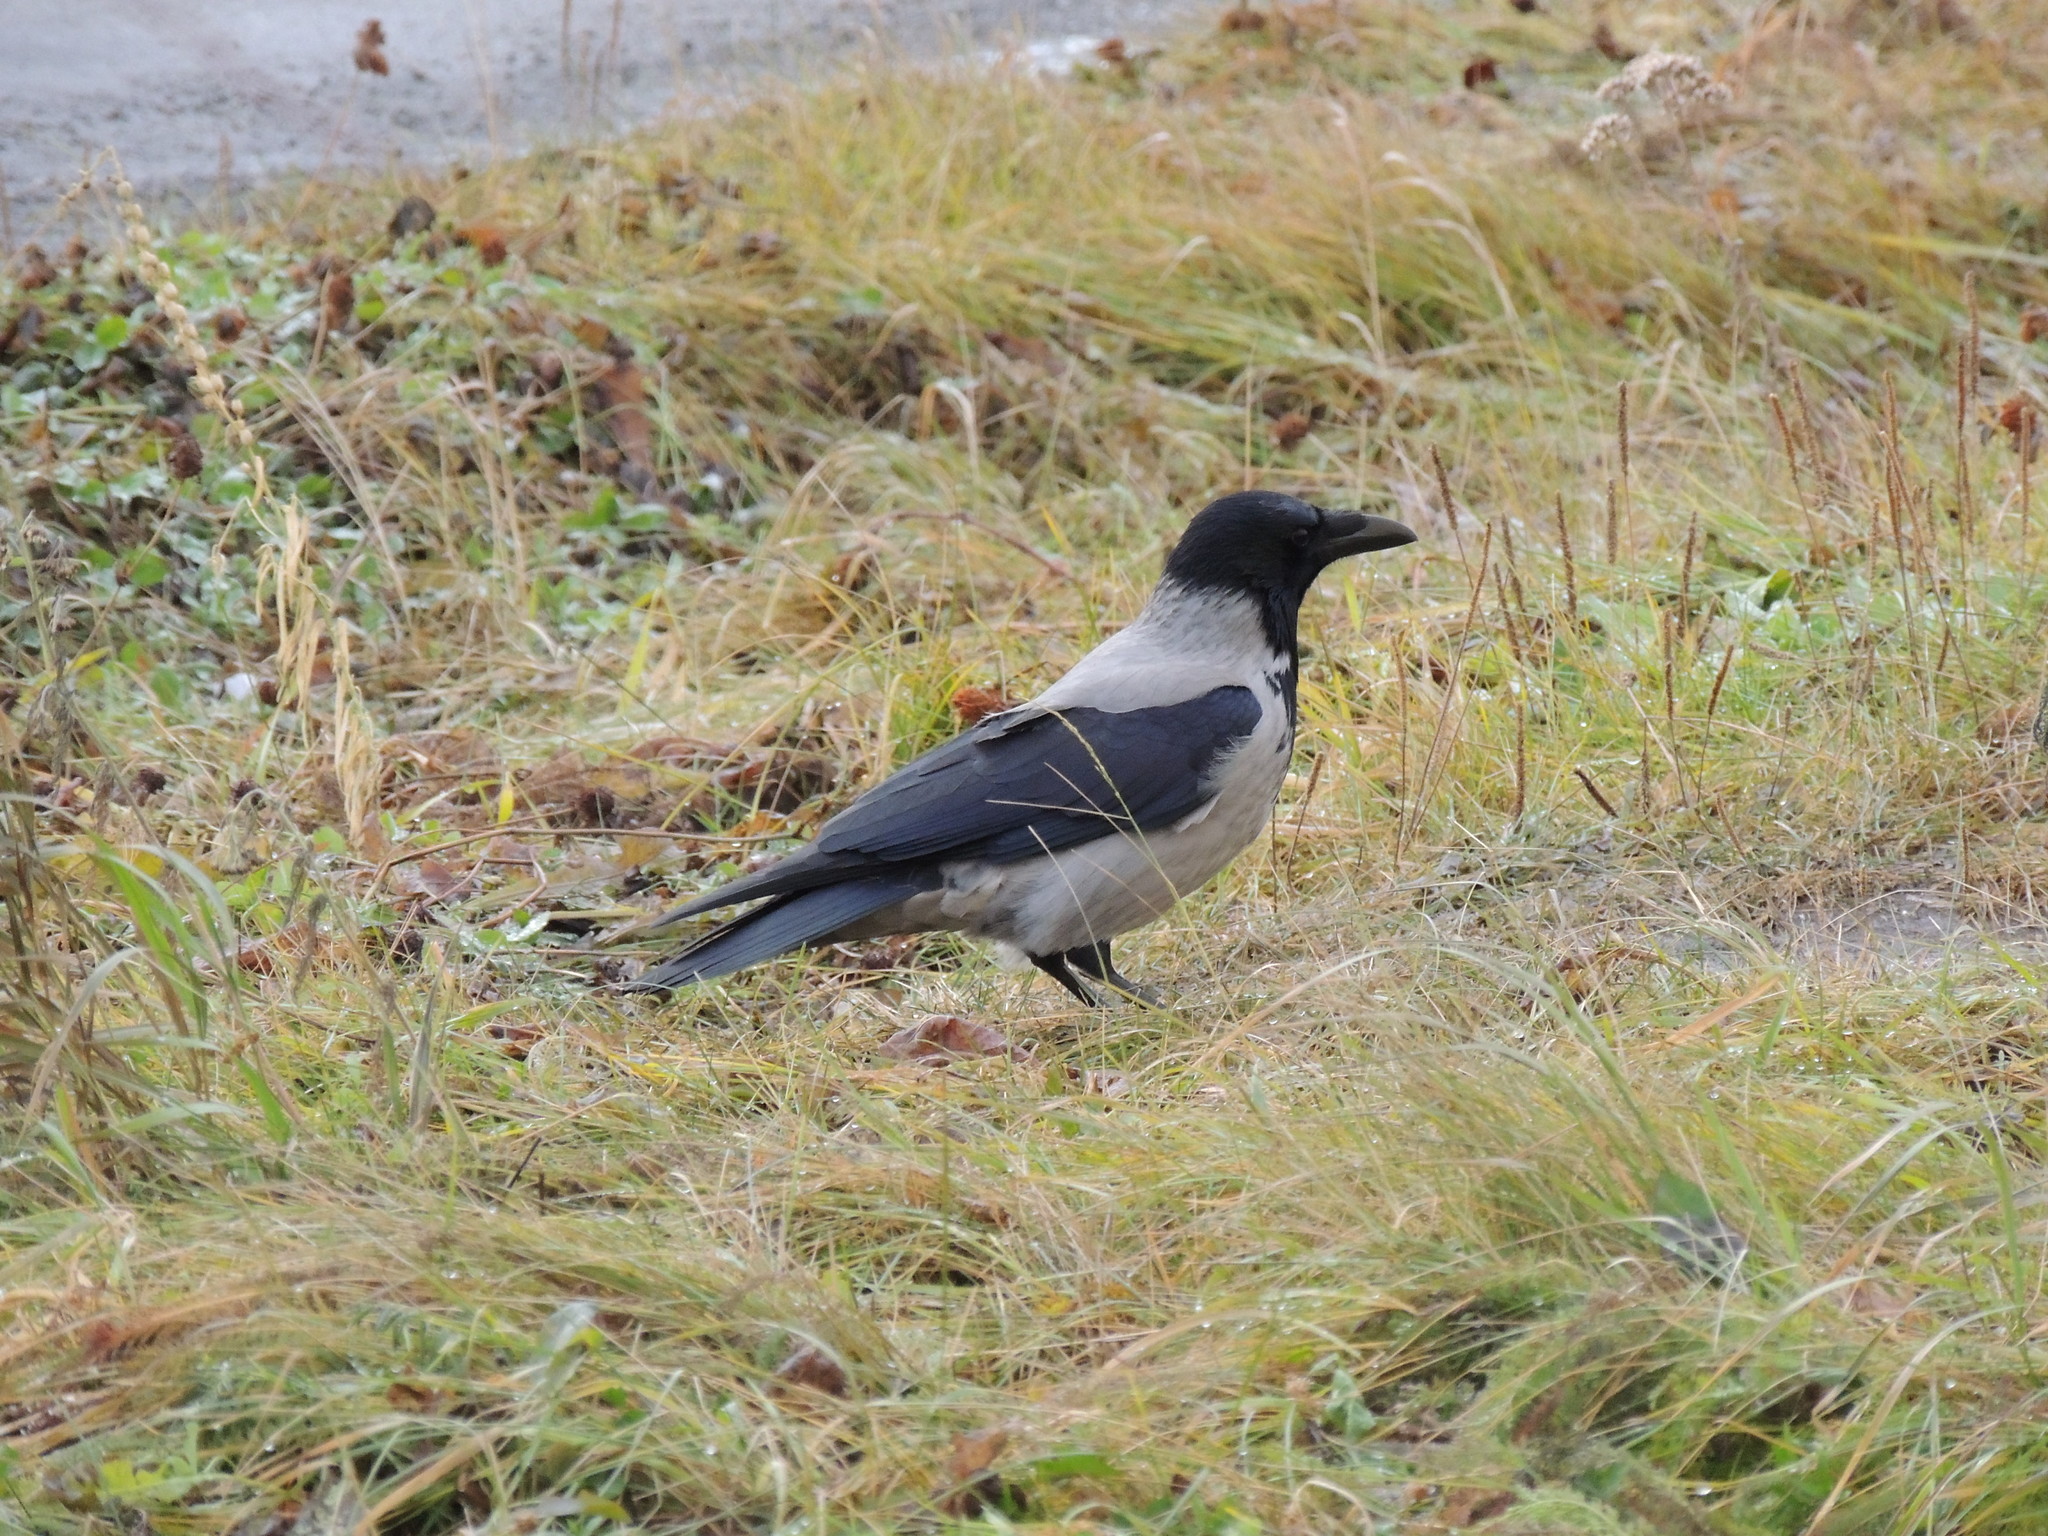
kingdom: Animalia
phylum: Chordata
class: Aves
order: Passeriformes
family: Corvidae
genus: Corvus
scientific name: Corvus cornix
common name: Hooded crow
